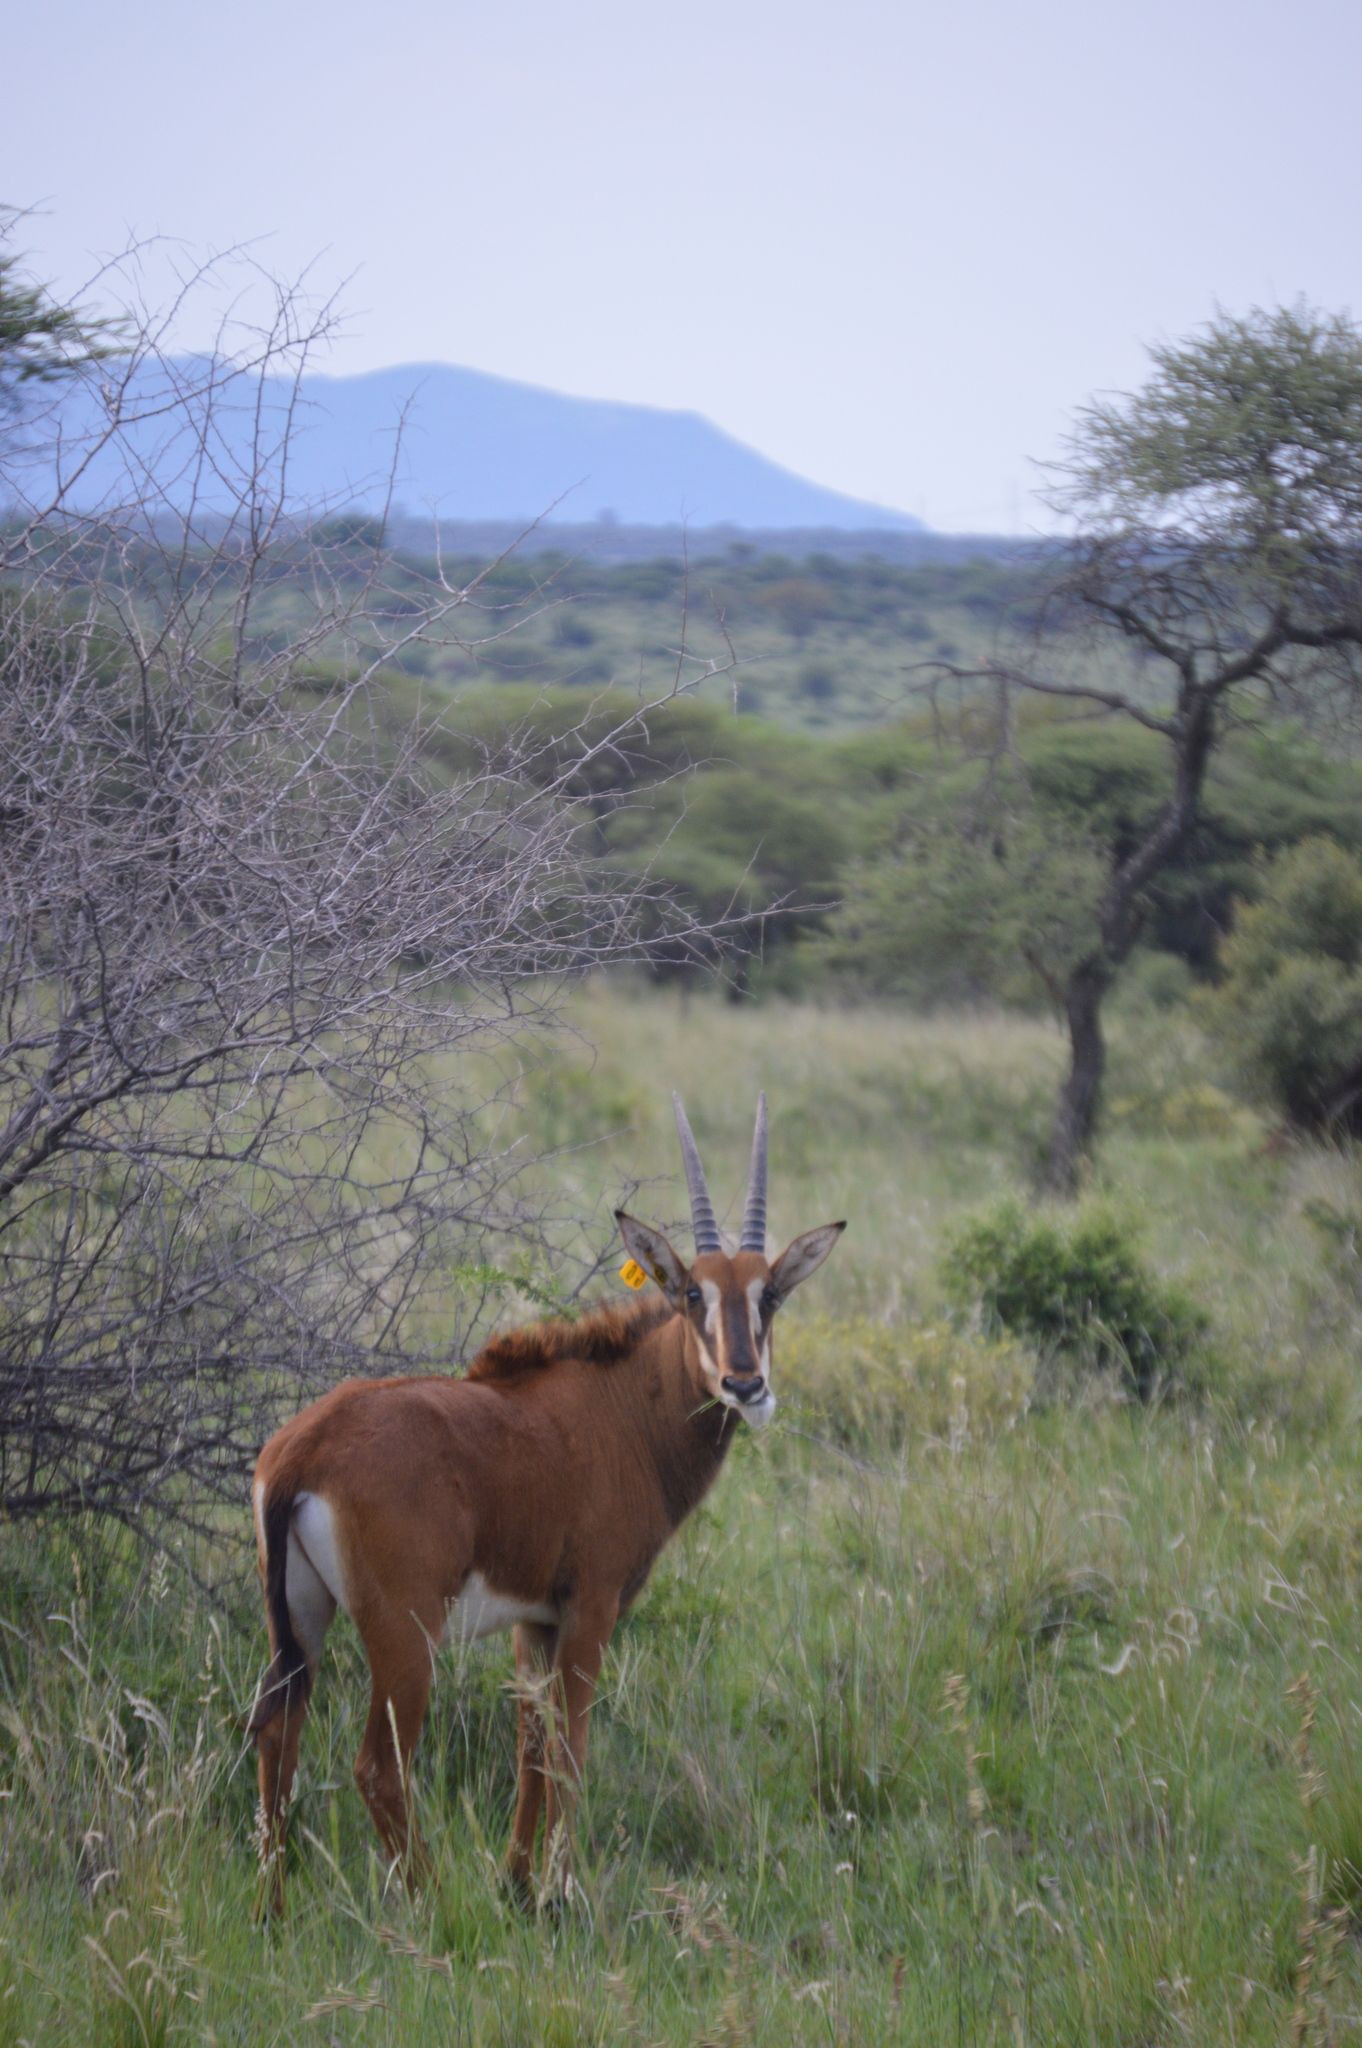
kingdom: Animalia
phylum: Chordata
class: Mammalia
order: Artiodactyla
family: Bovidae
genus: Hippotragus
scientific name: Hippotragus niger
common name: Sable antelope
